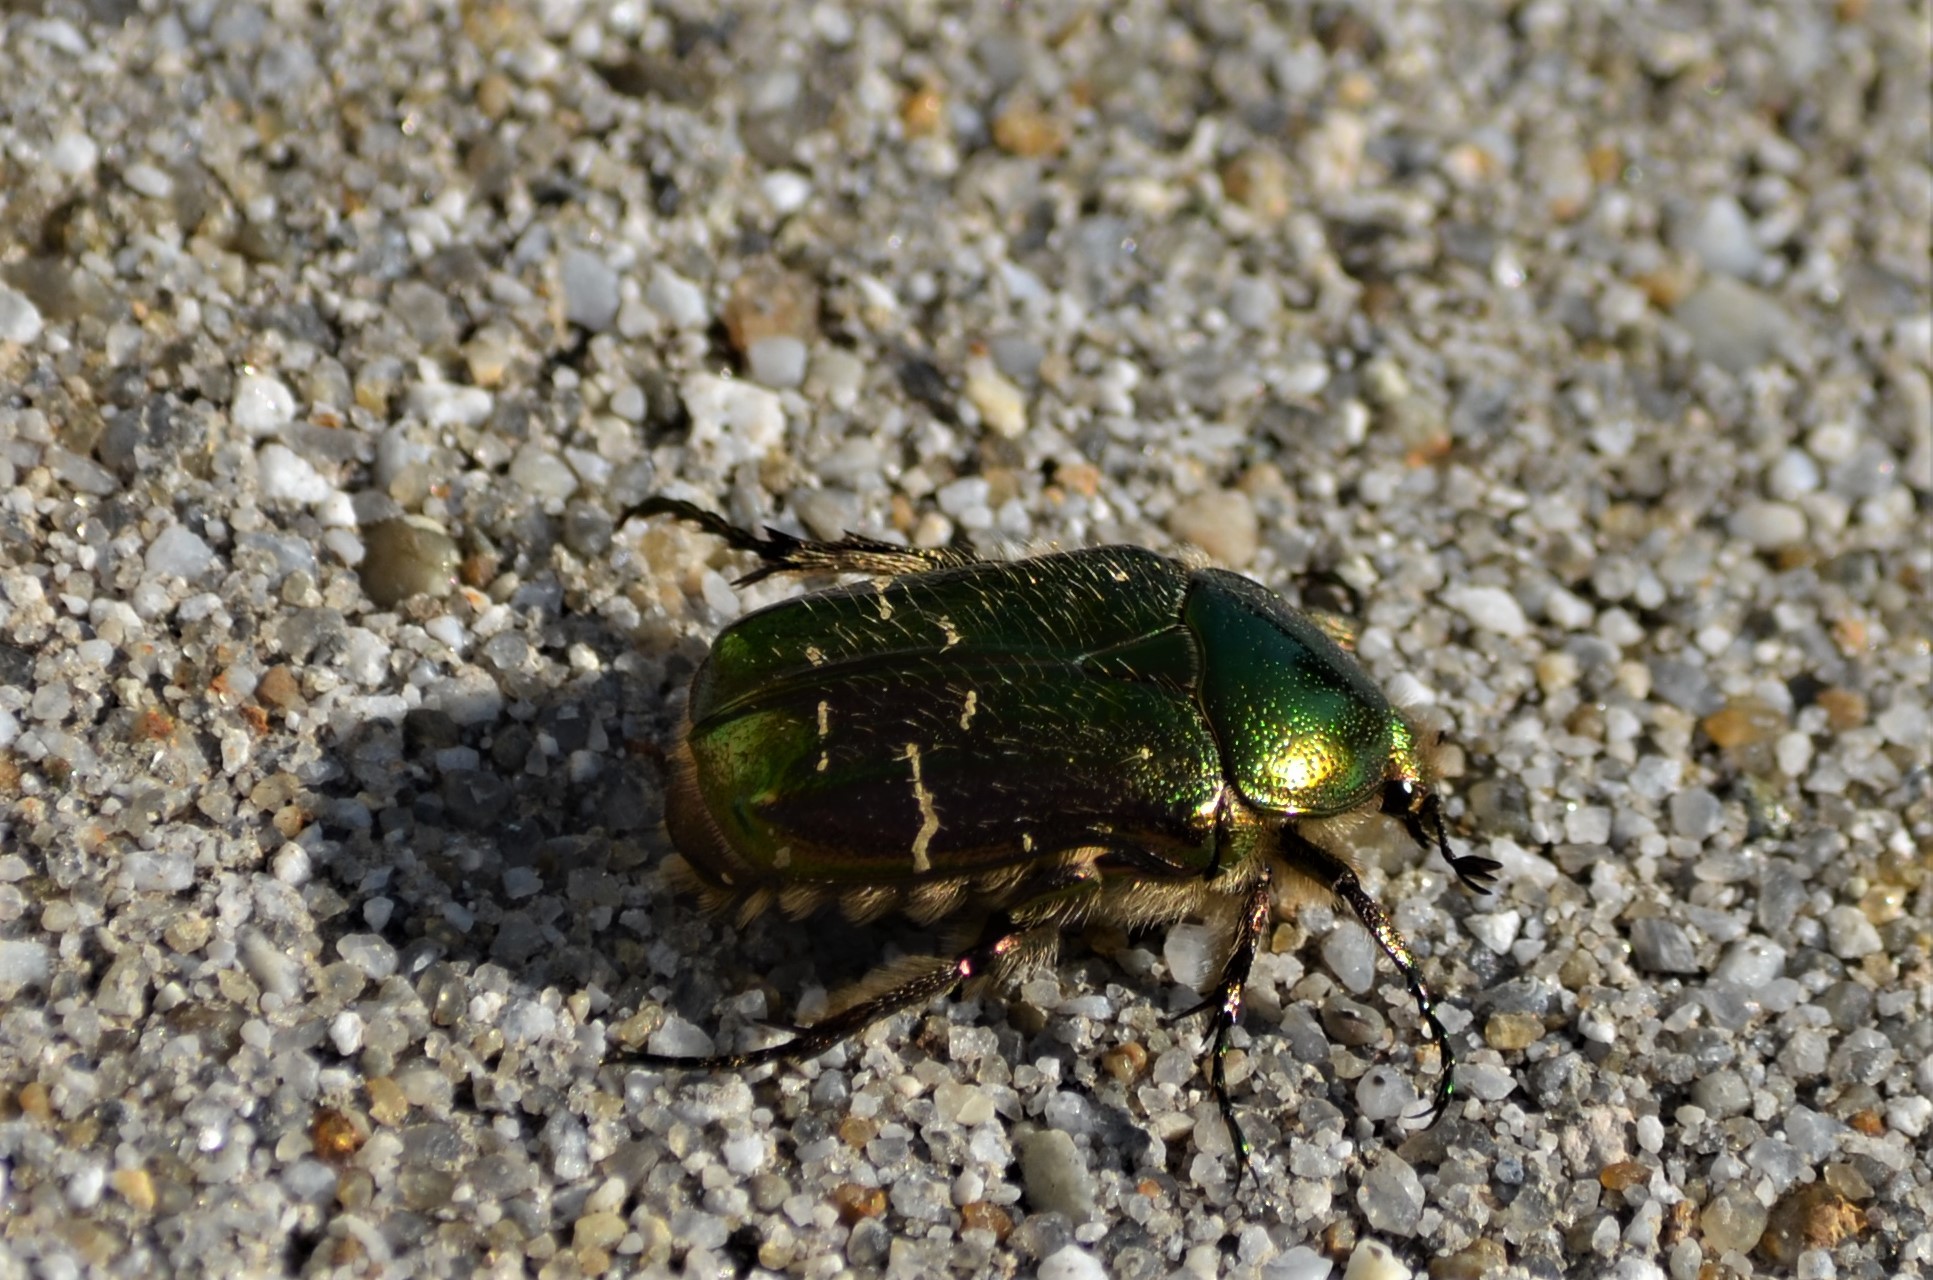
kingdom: Animalia
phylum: Arthropoda
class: Insecta
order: Coleoptera
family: Scarabaeidae
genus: Cetonia
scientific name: Cetonia aurata
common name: Rose chafer
